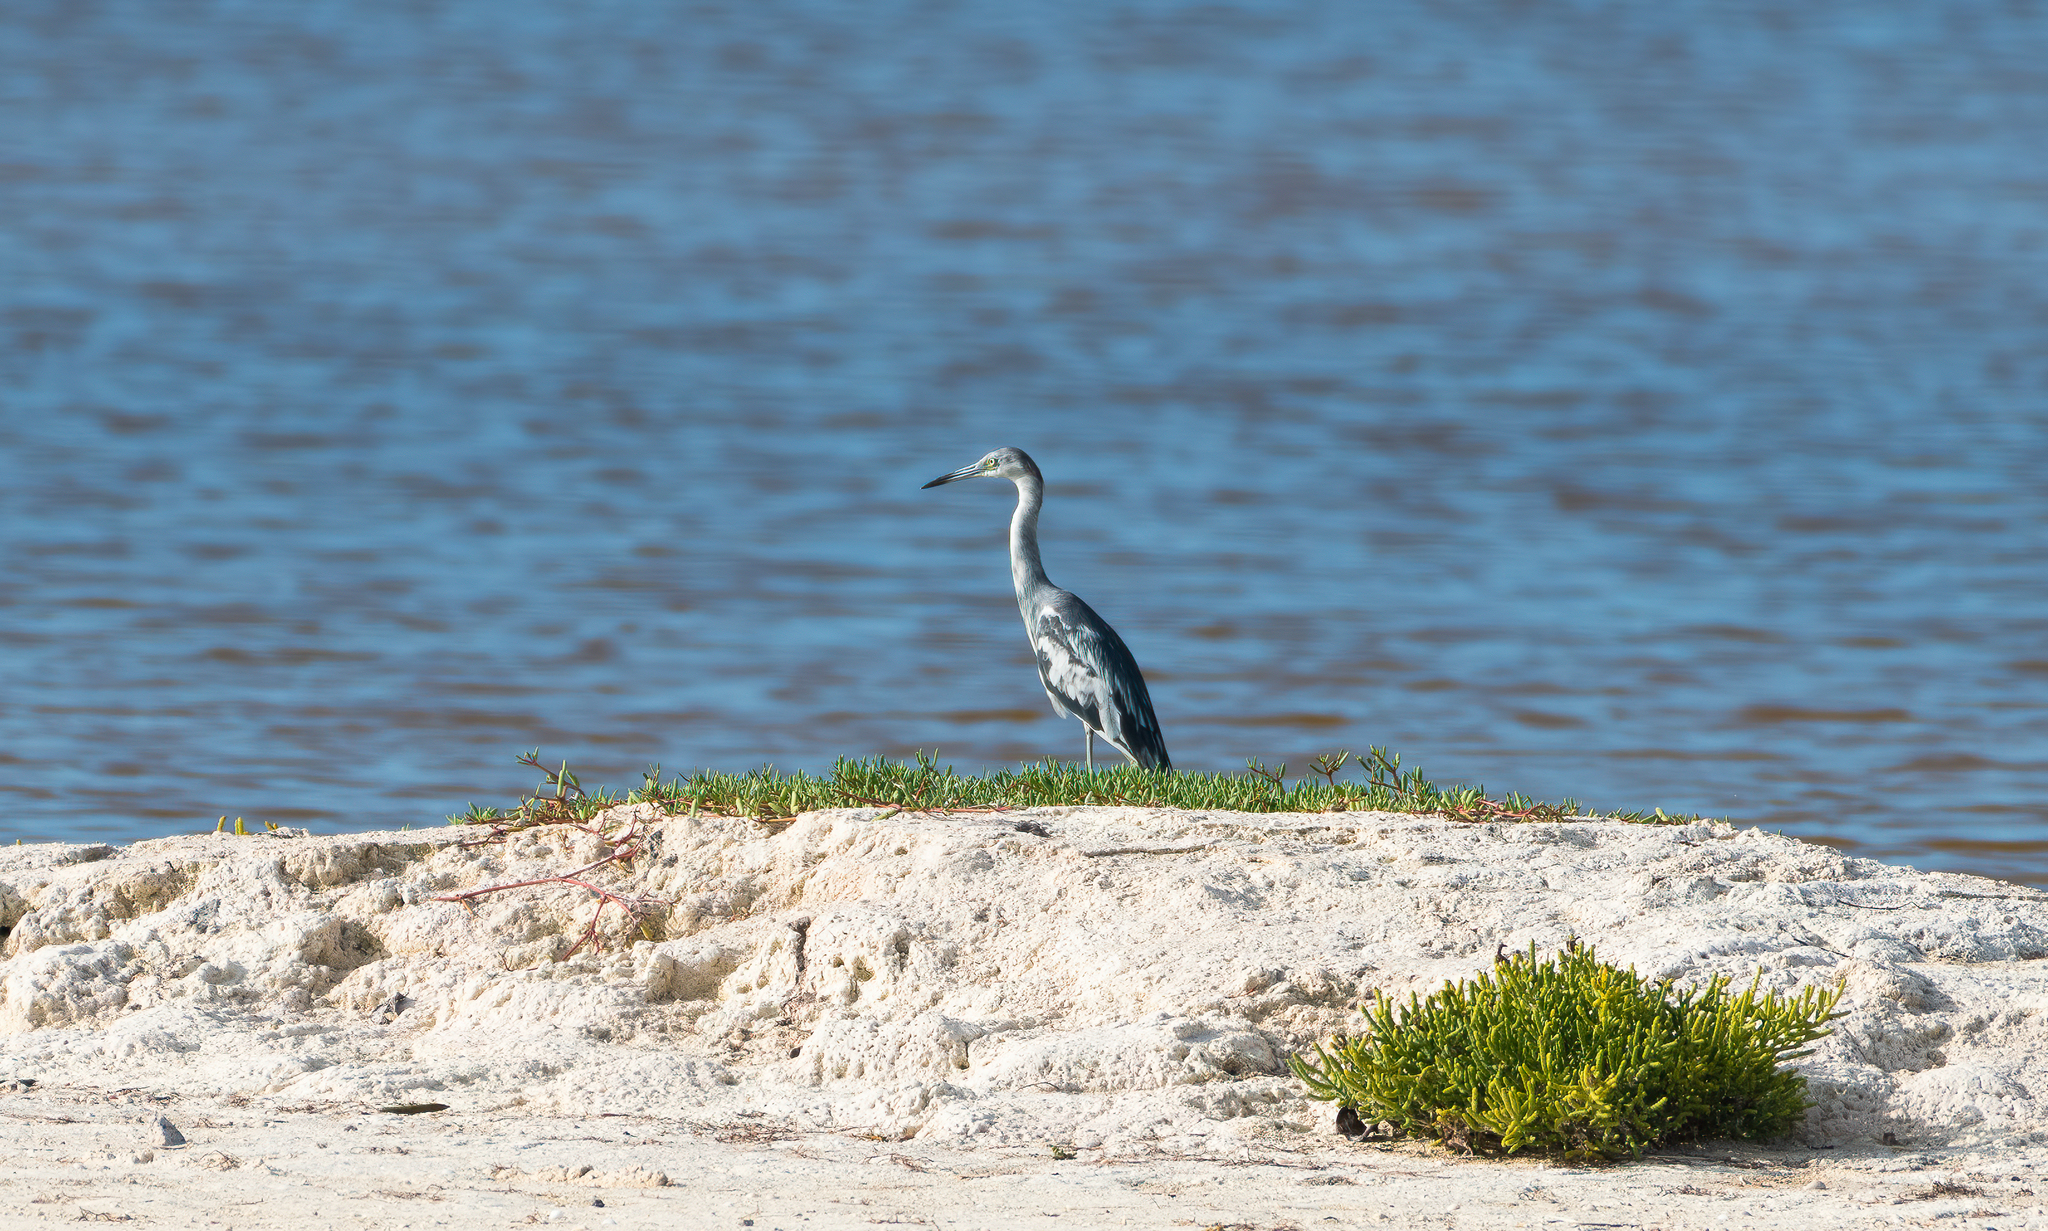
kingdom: Animalia
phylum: Chordata
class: Aves
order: Pelecaniformes
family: Ardeidae
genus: Egretta
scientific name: Egretta caerulea
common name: Little blue heron
